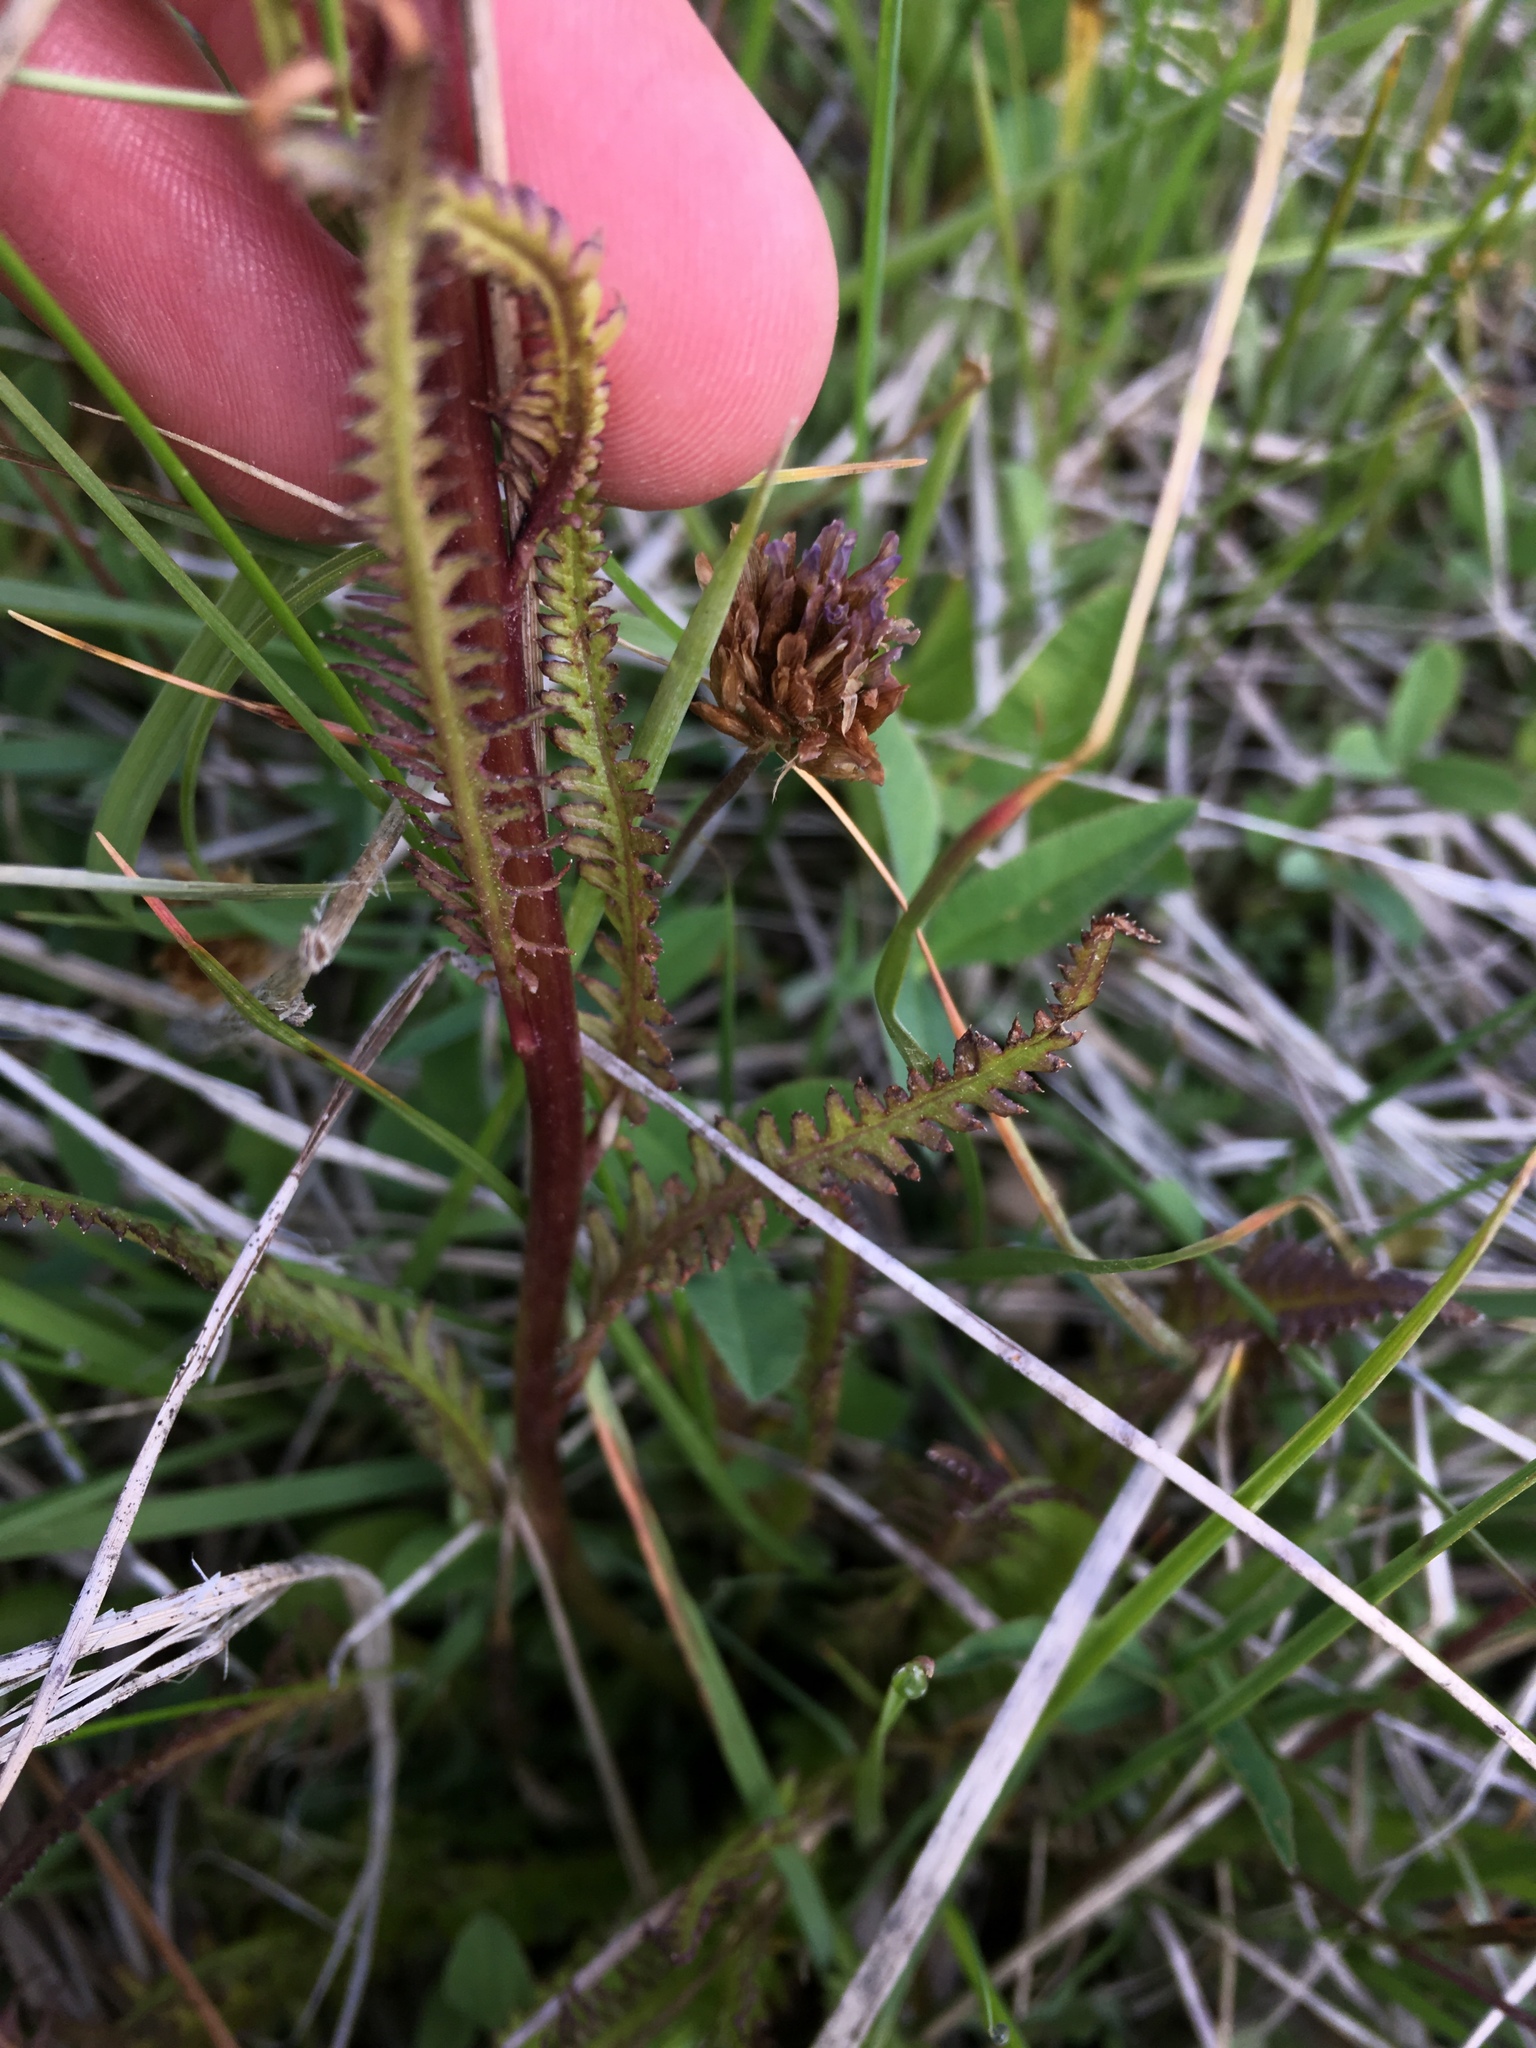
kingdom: Plantae
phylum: Tracheophyta
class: Magnoliopsida
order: Lamiales
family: Orobanchaceae
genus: Pedicularis
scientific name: Pedicularis groenlandica
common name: Elephant's-head
